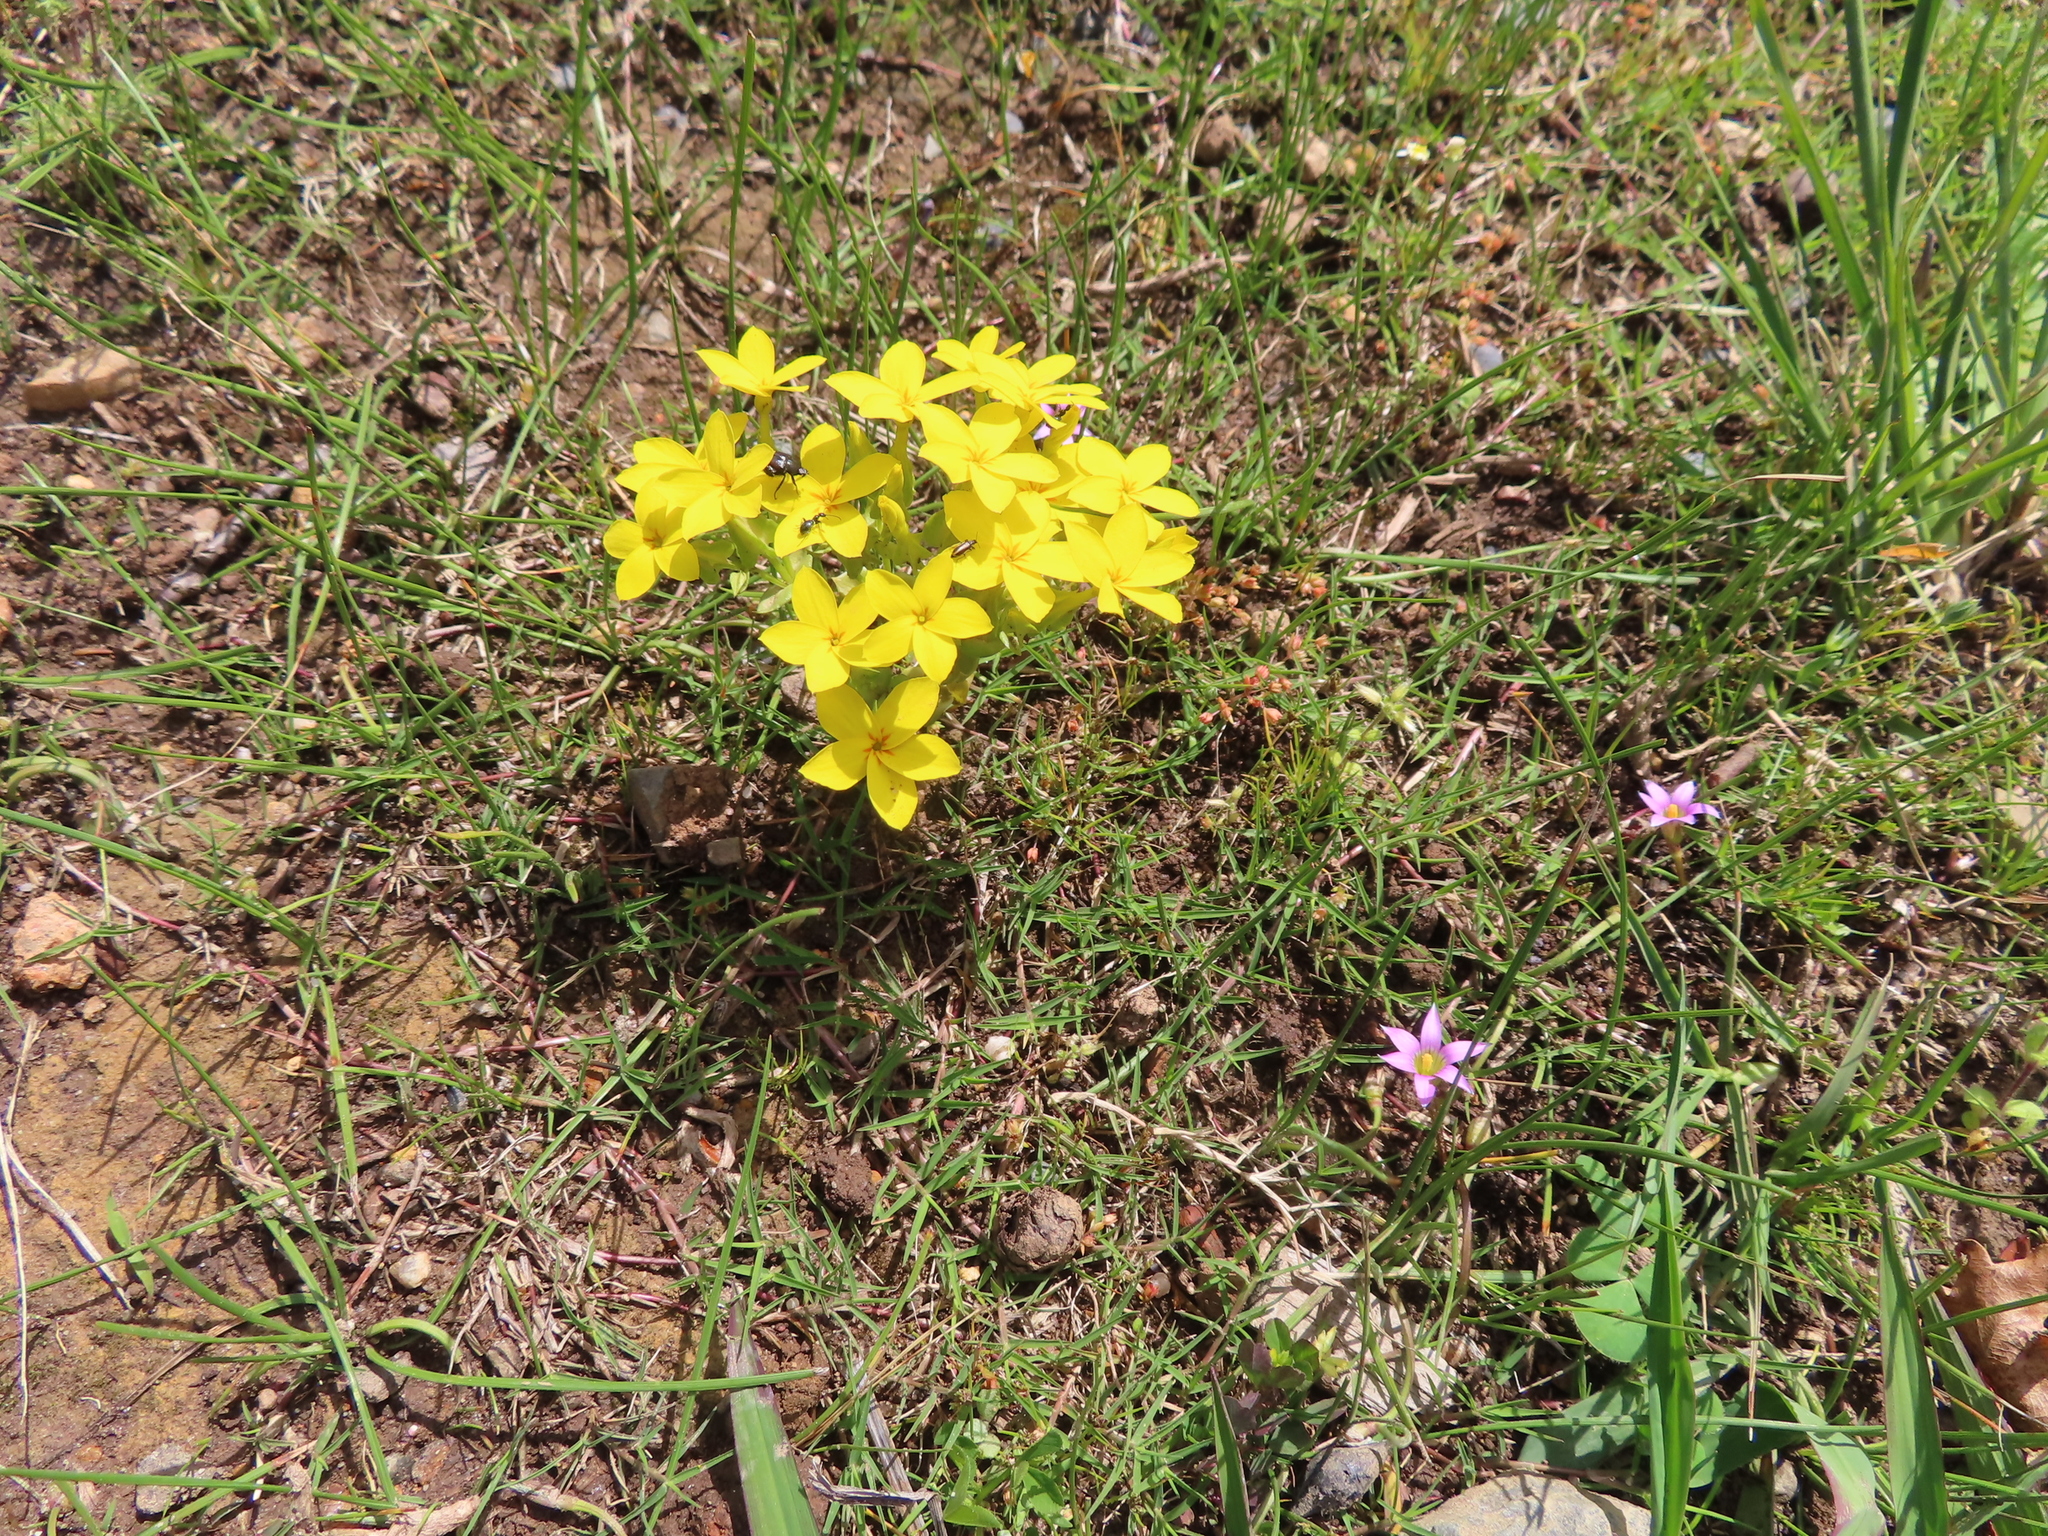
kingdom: Plantae
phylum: Tracheophyta
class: Magnoliopsida
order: Gentianales
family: Gentianaceae
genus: Sebaea
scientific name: Sebaea exacoides
